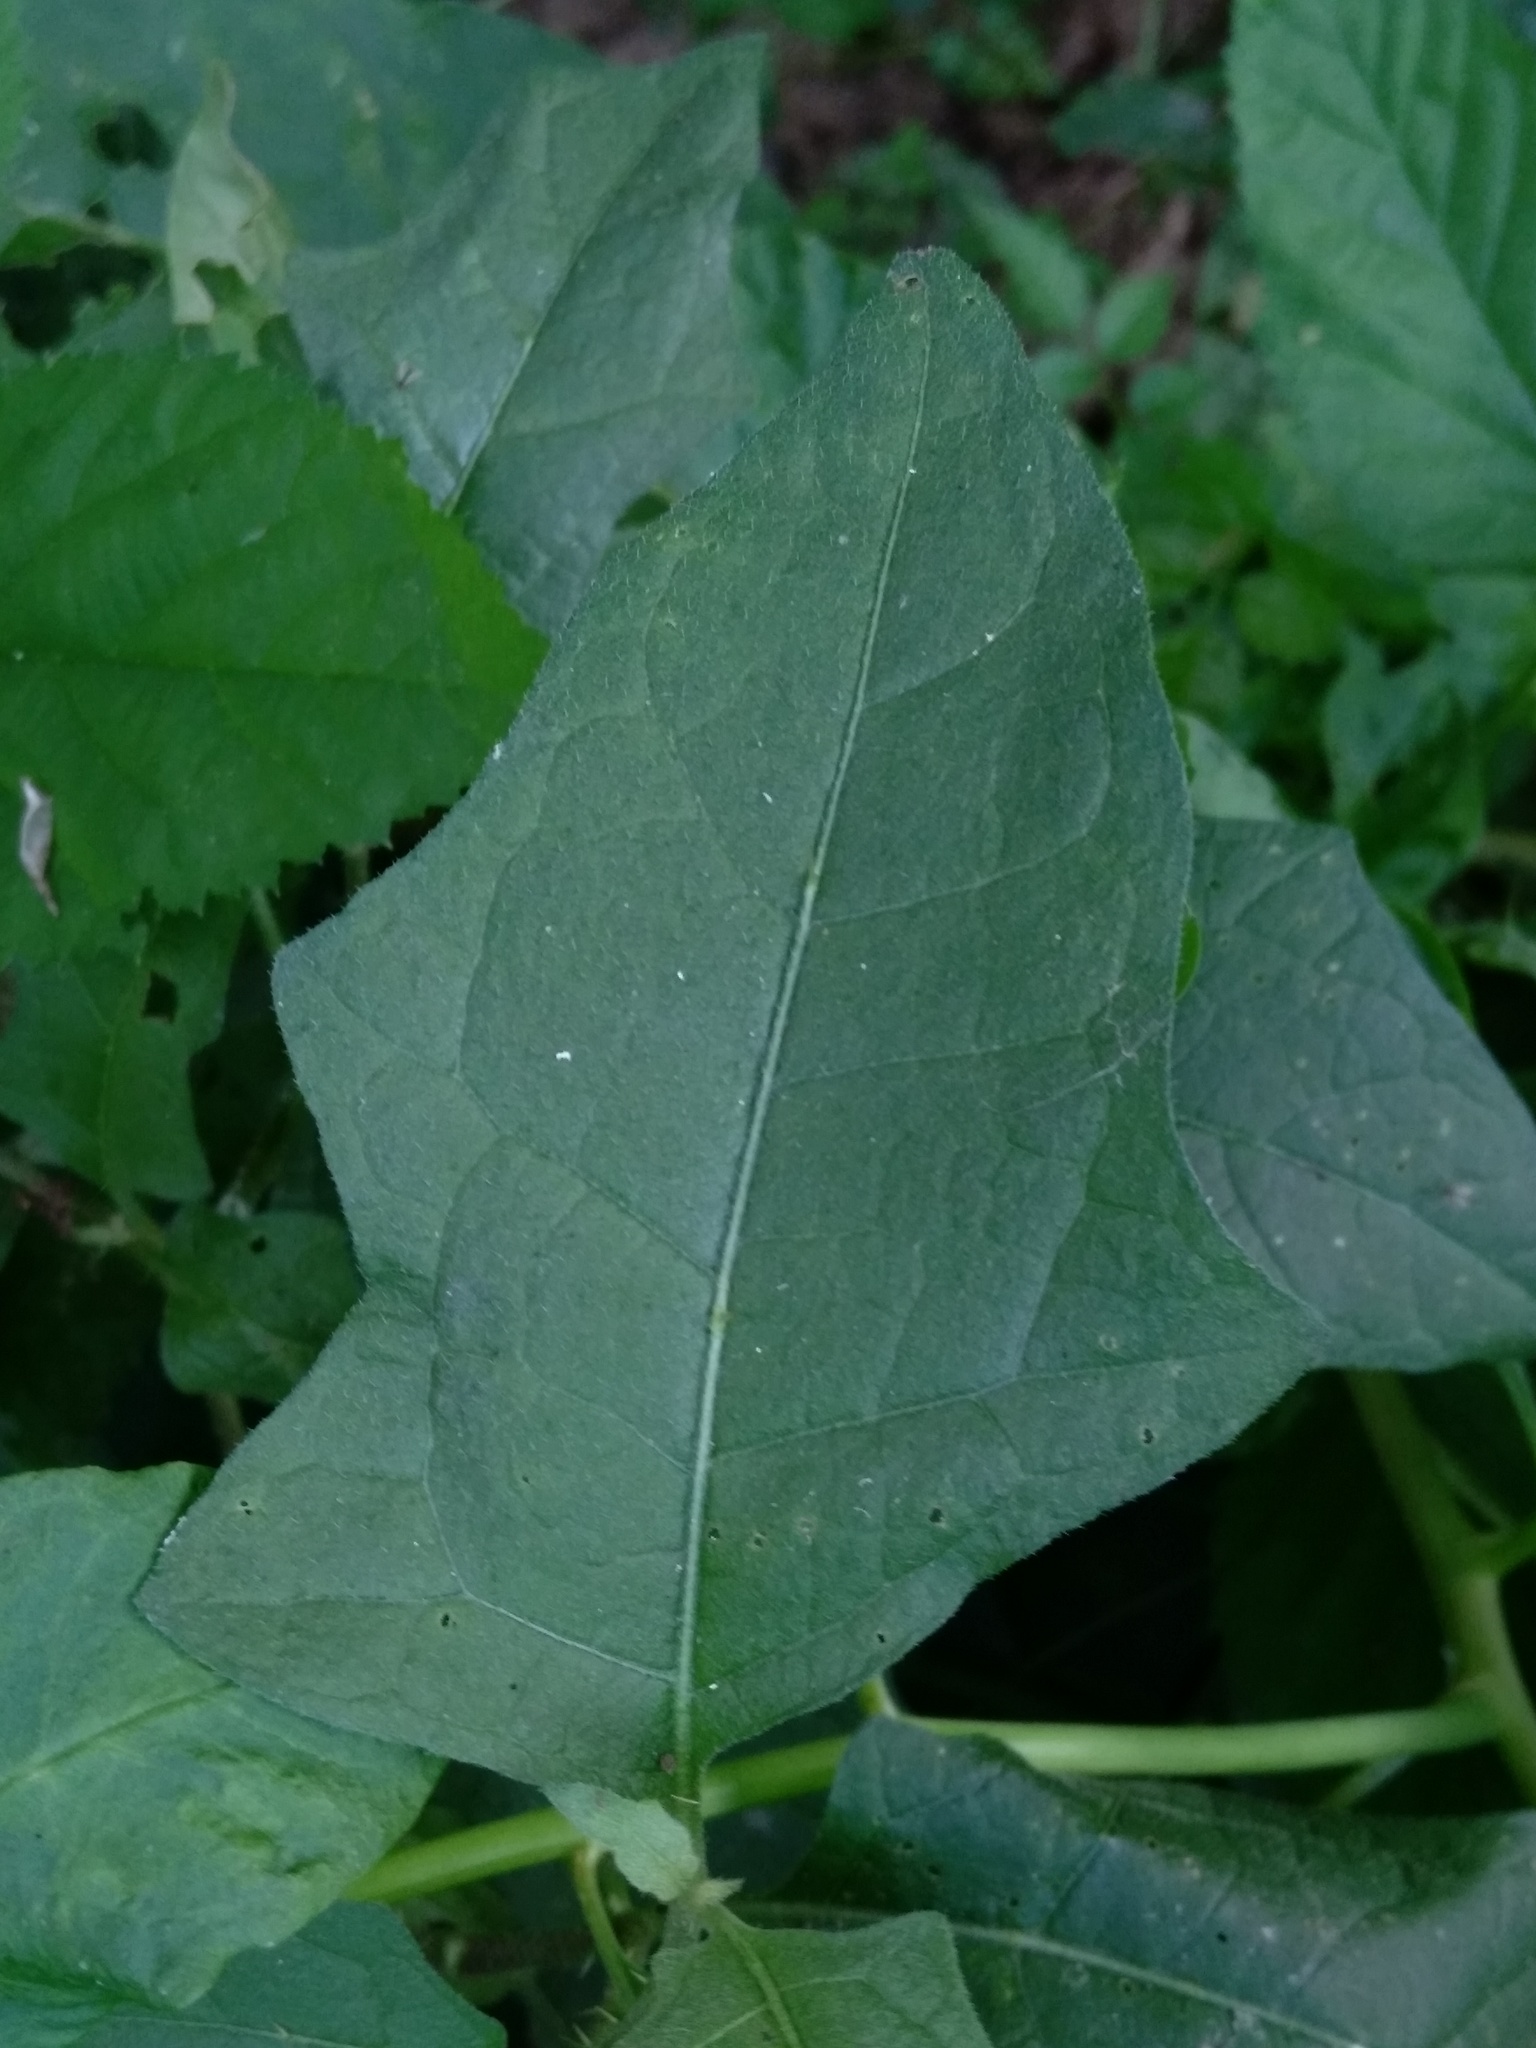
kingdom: Plantae
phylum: Tracheophyta
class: Magnoliopsida
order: Solanales
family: Solanaceae
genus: Solanum
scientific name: Solanum carolinense
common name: Horse-nettle
